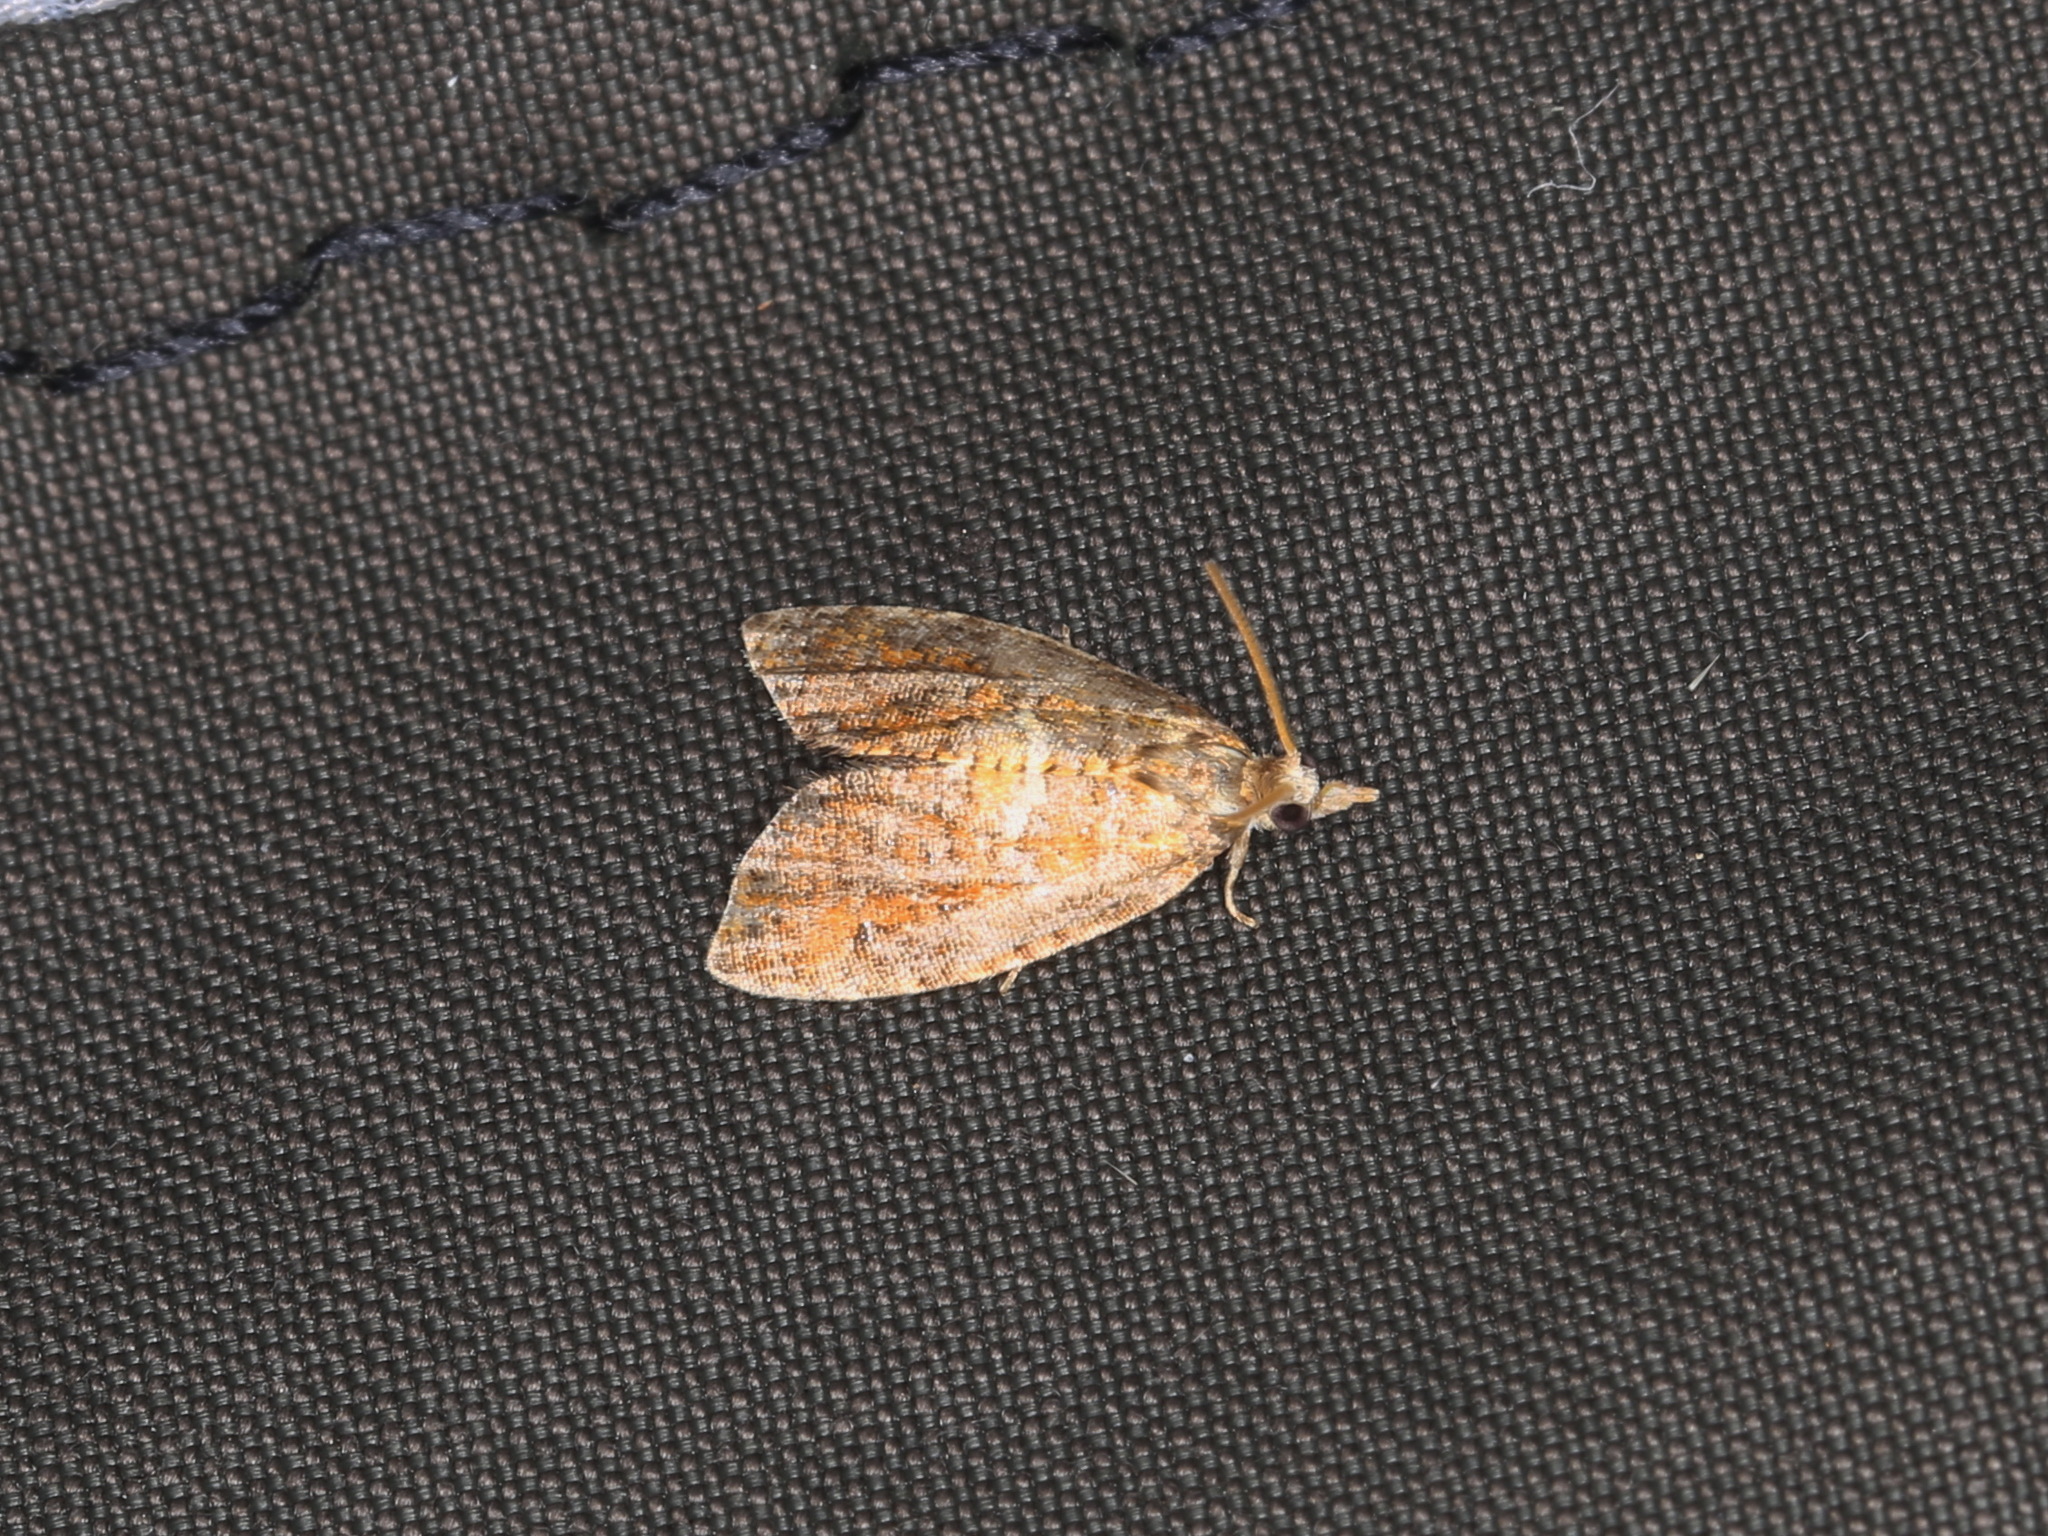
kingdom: Animalia
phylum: Arthropoda
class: Insecta
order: Lepidoptera
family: Tortricidae
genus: Pseudargyrotoza
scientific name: Pseudargyrotoza conwagana
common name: Yellow-spot twist
